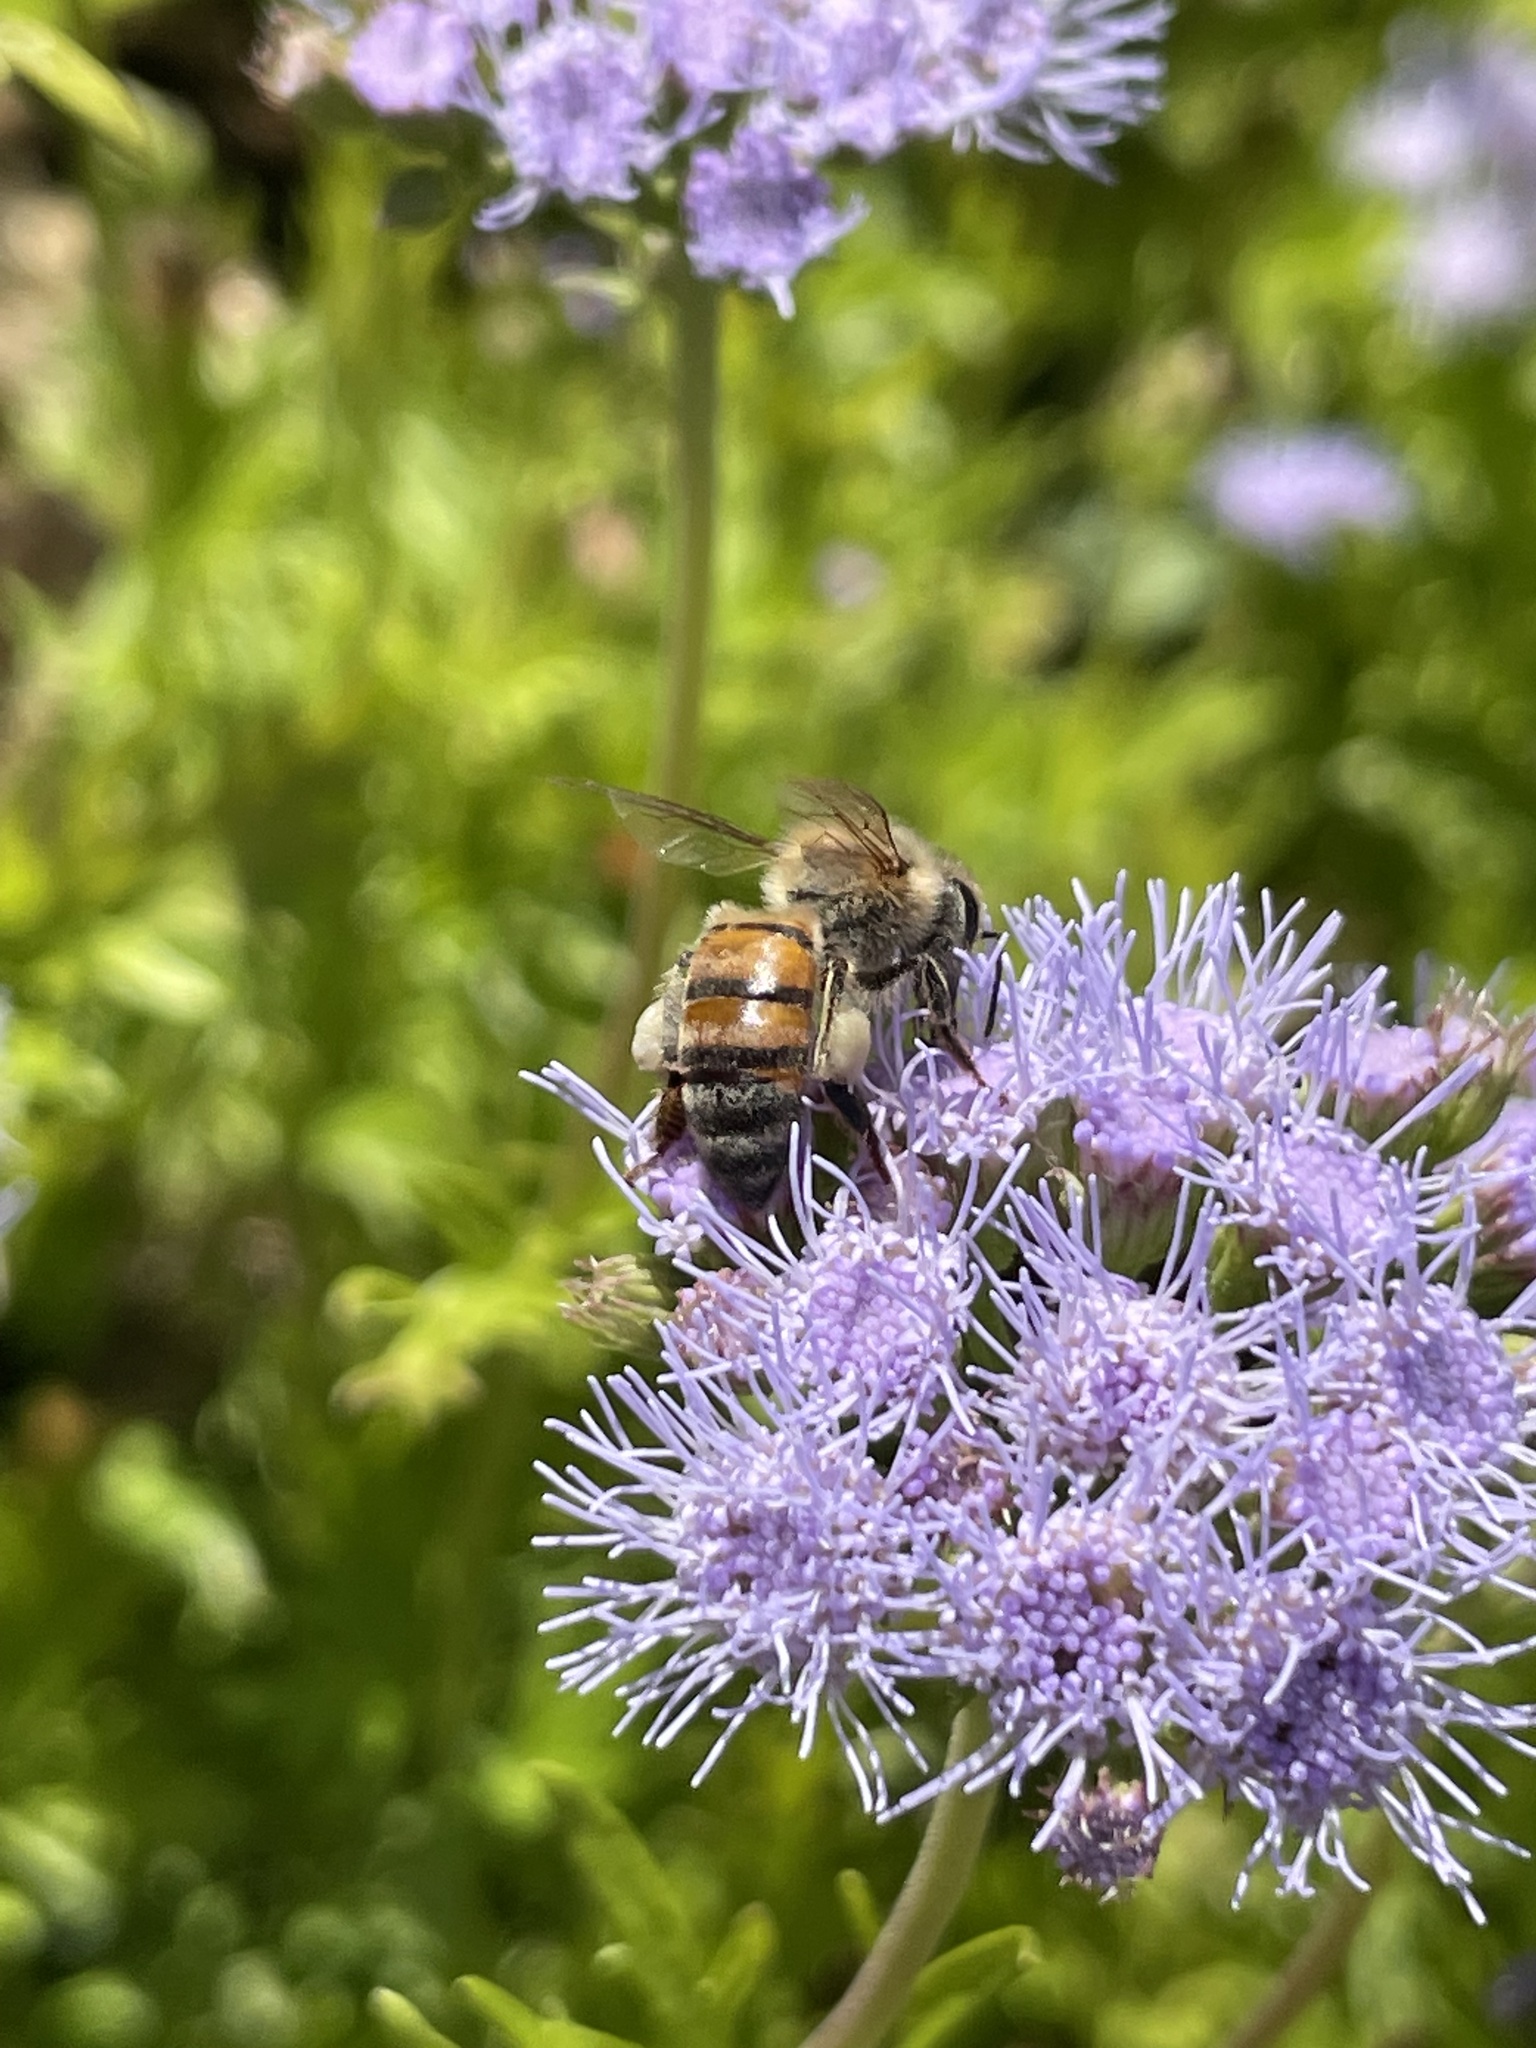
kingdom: Animalia
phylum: Arthropoda
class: Insecta
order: Hymenoptera
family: Apidae
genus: Apis
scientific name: Apis mellifera
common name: Honey bee
